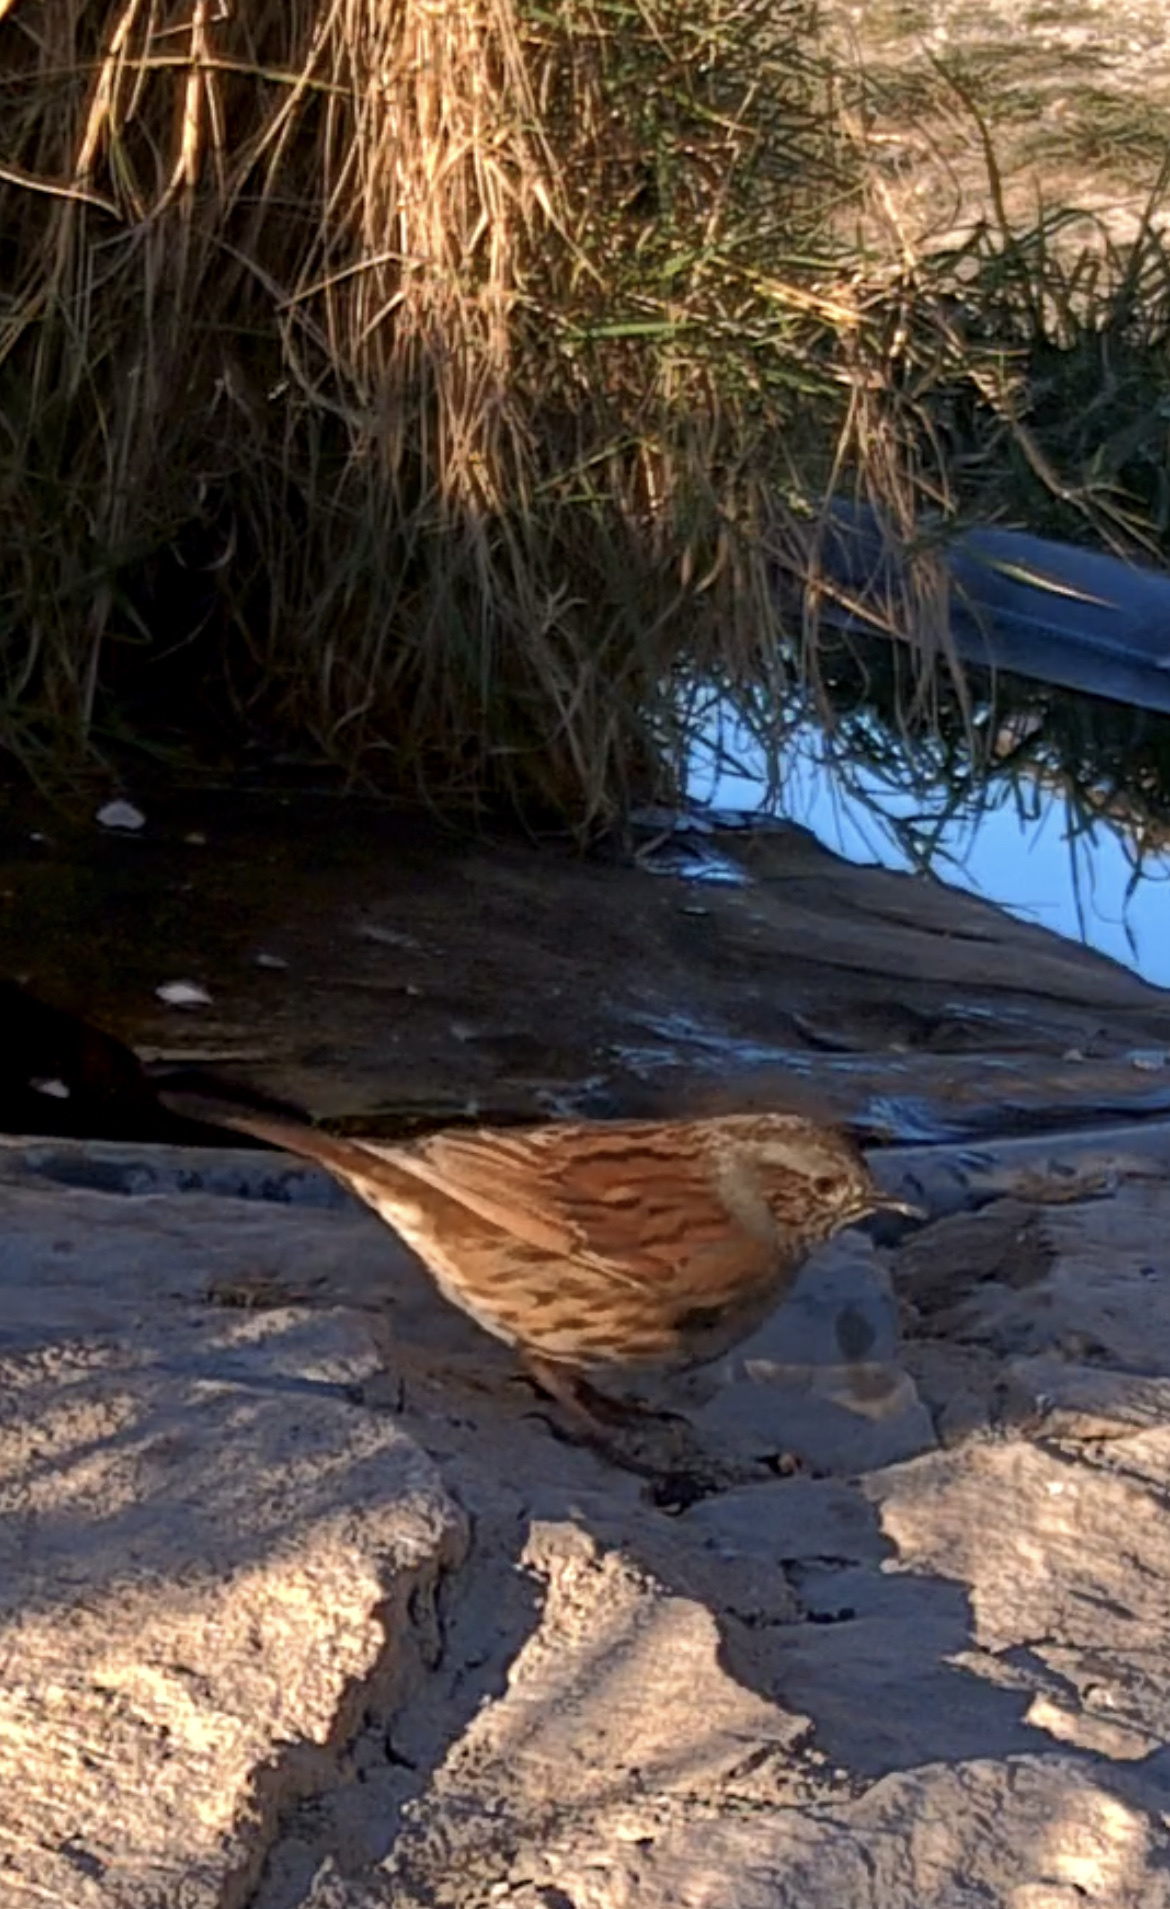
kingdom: Animalia
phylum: Chordata
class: Aves
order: Passeriformes
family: Prunellidae
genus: Prunella
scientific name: Prunella modularis
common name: Dunnock
